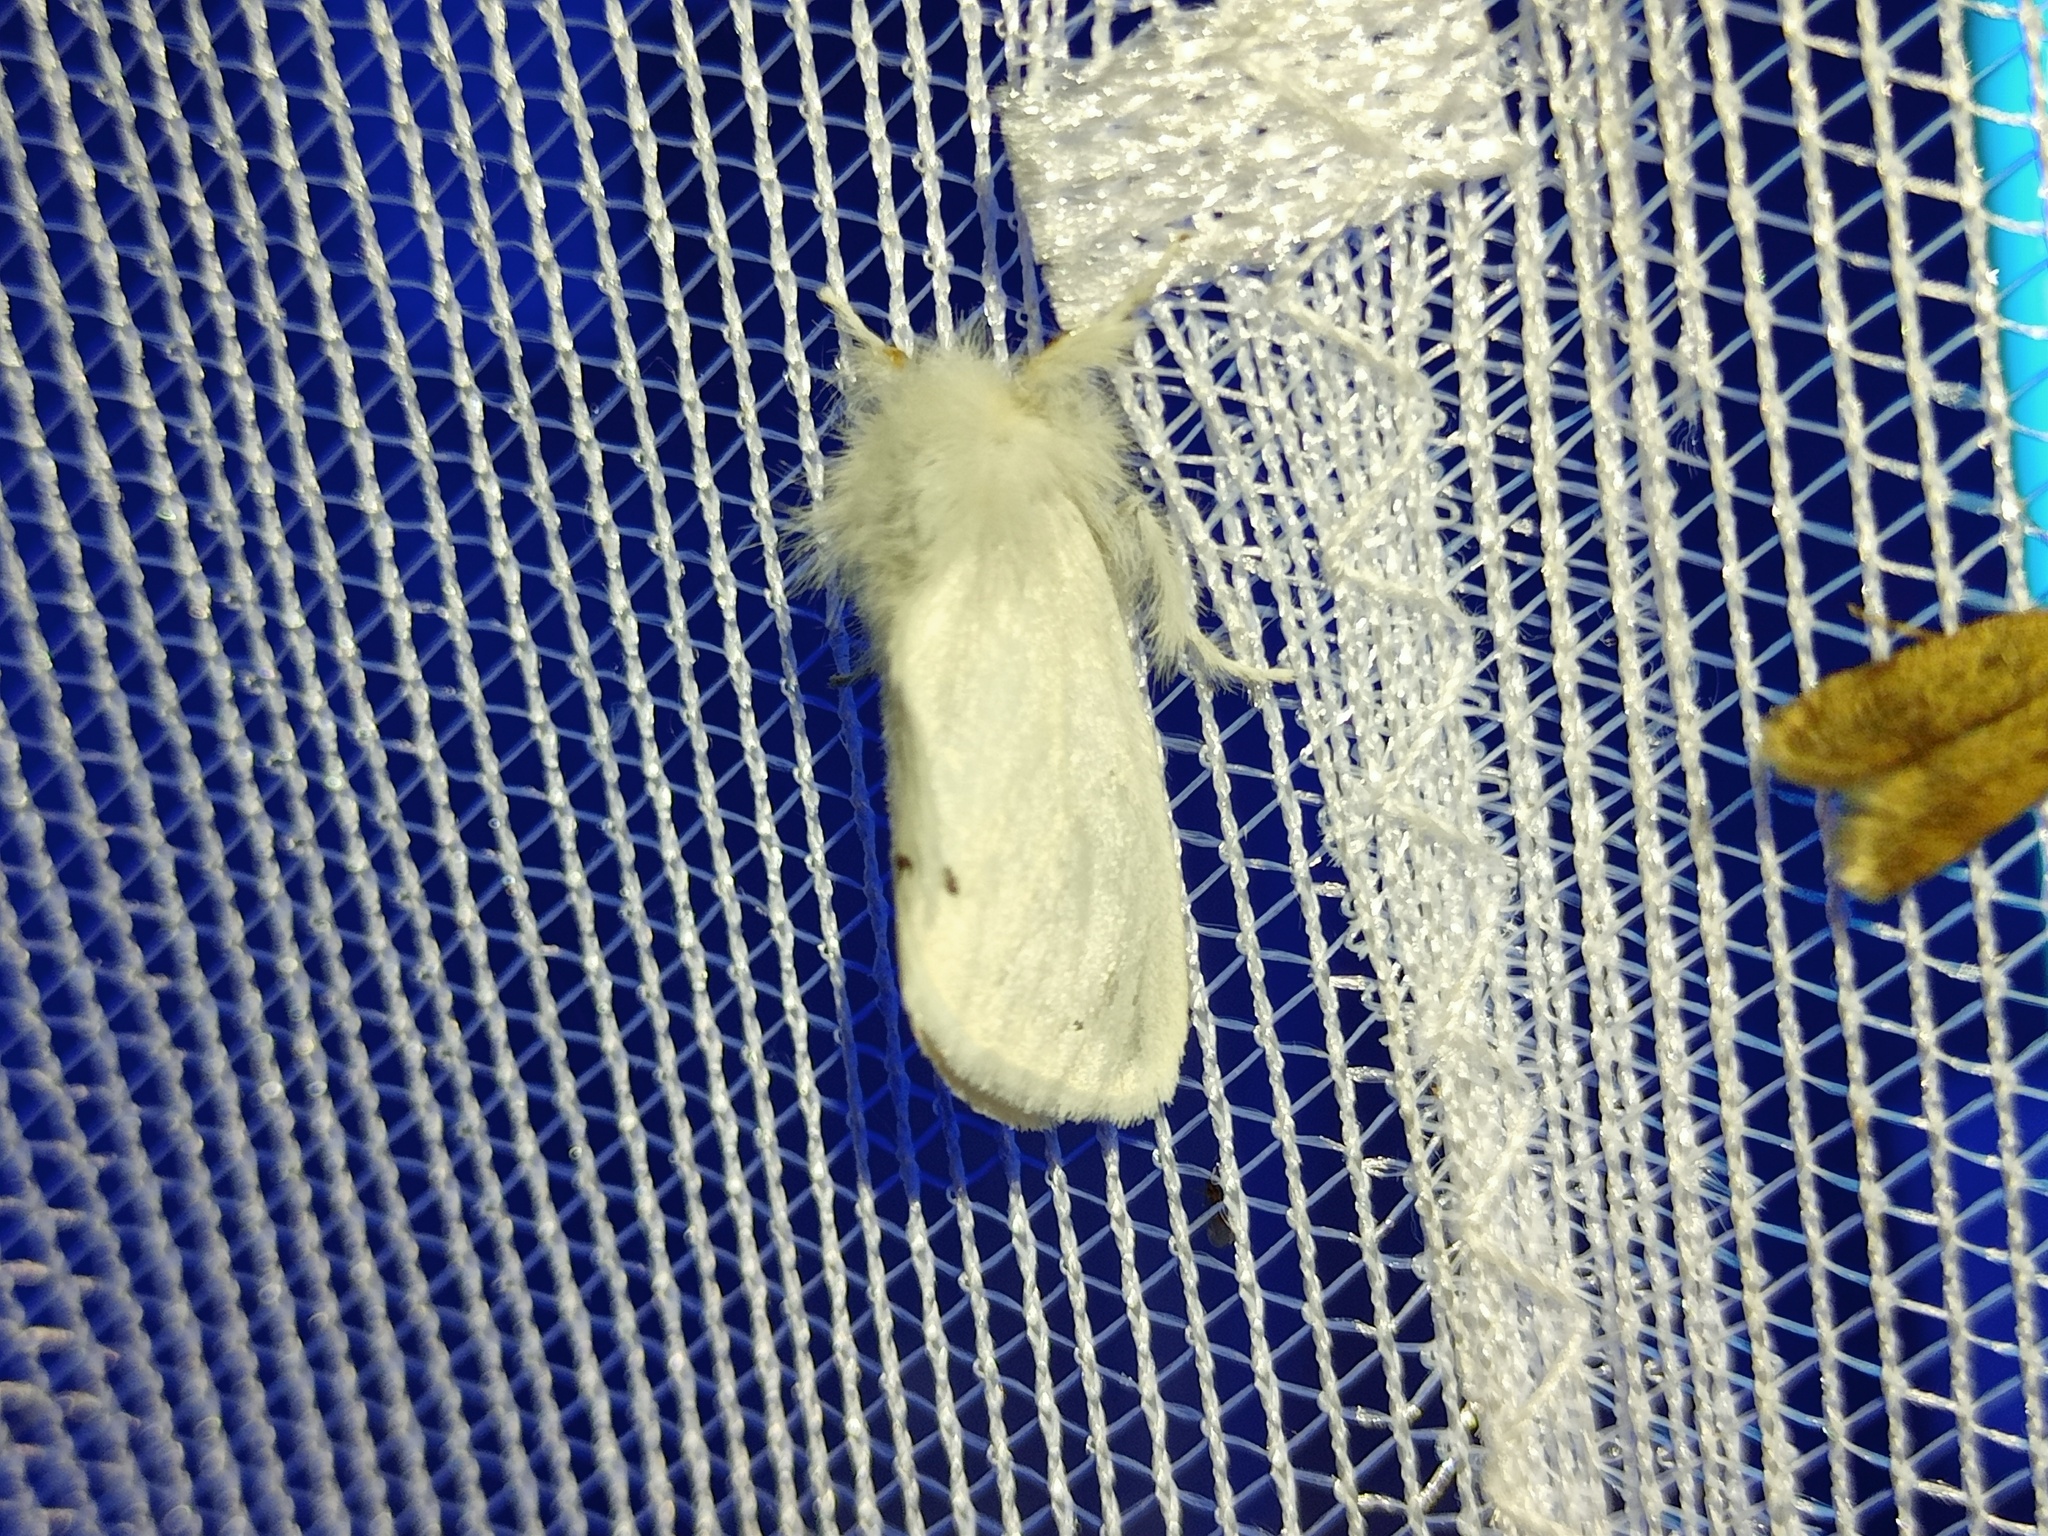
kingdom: Animalia
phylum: Arthropoda
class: Insecta
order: Lepidoptera
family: Erebidae
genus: Euproctis
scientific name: Euproctis chrysorrhoea
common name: Brown-tail
